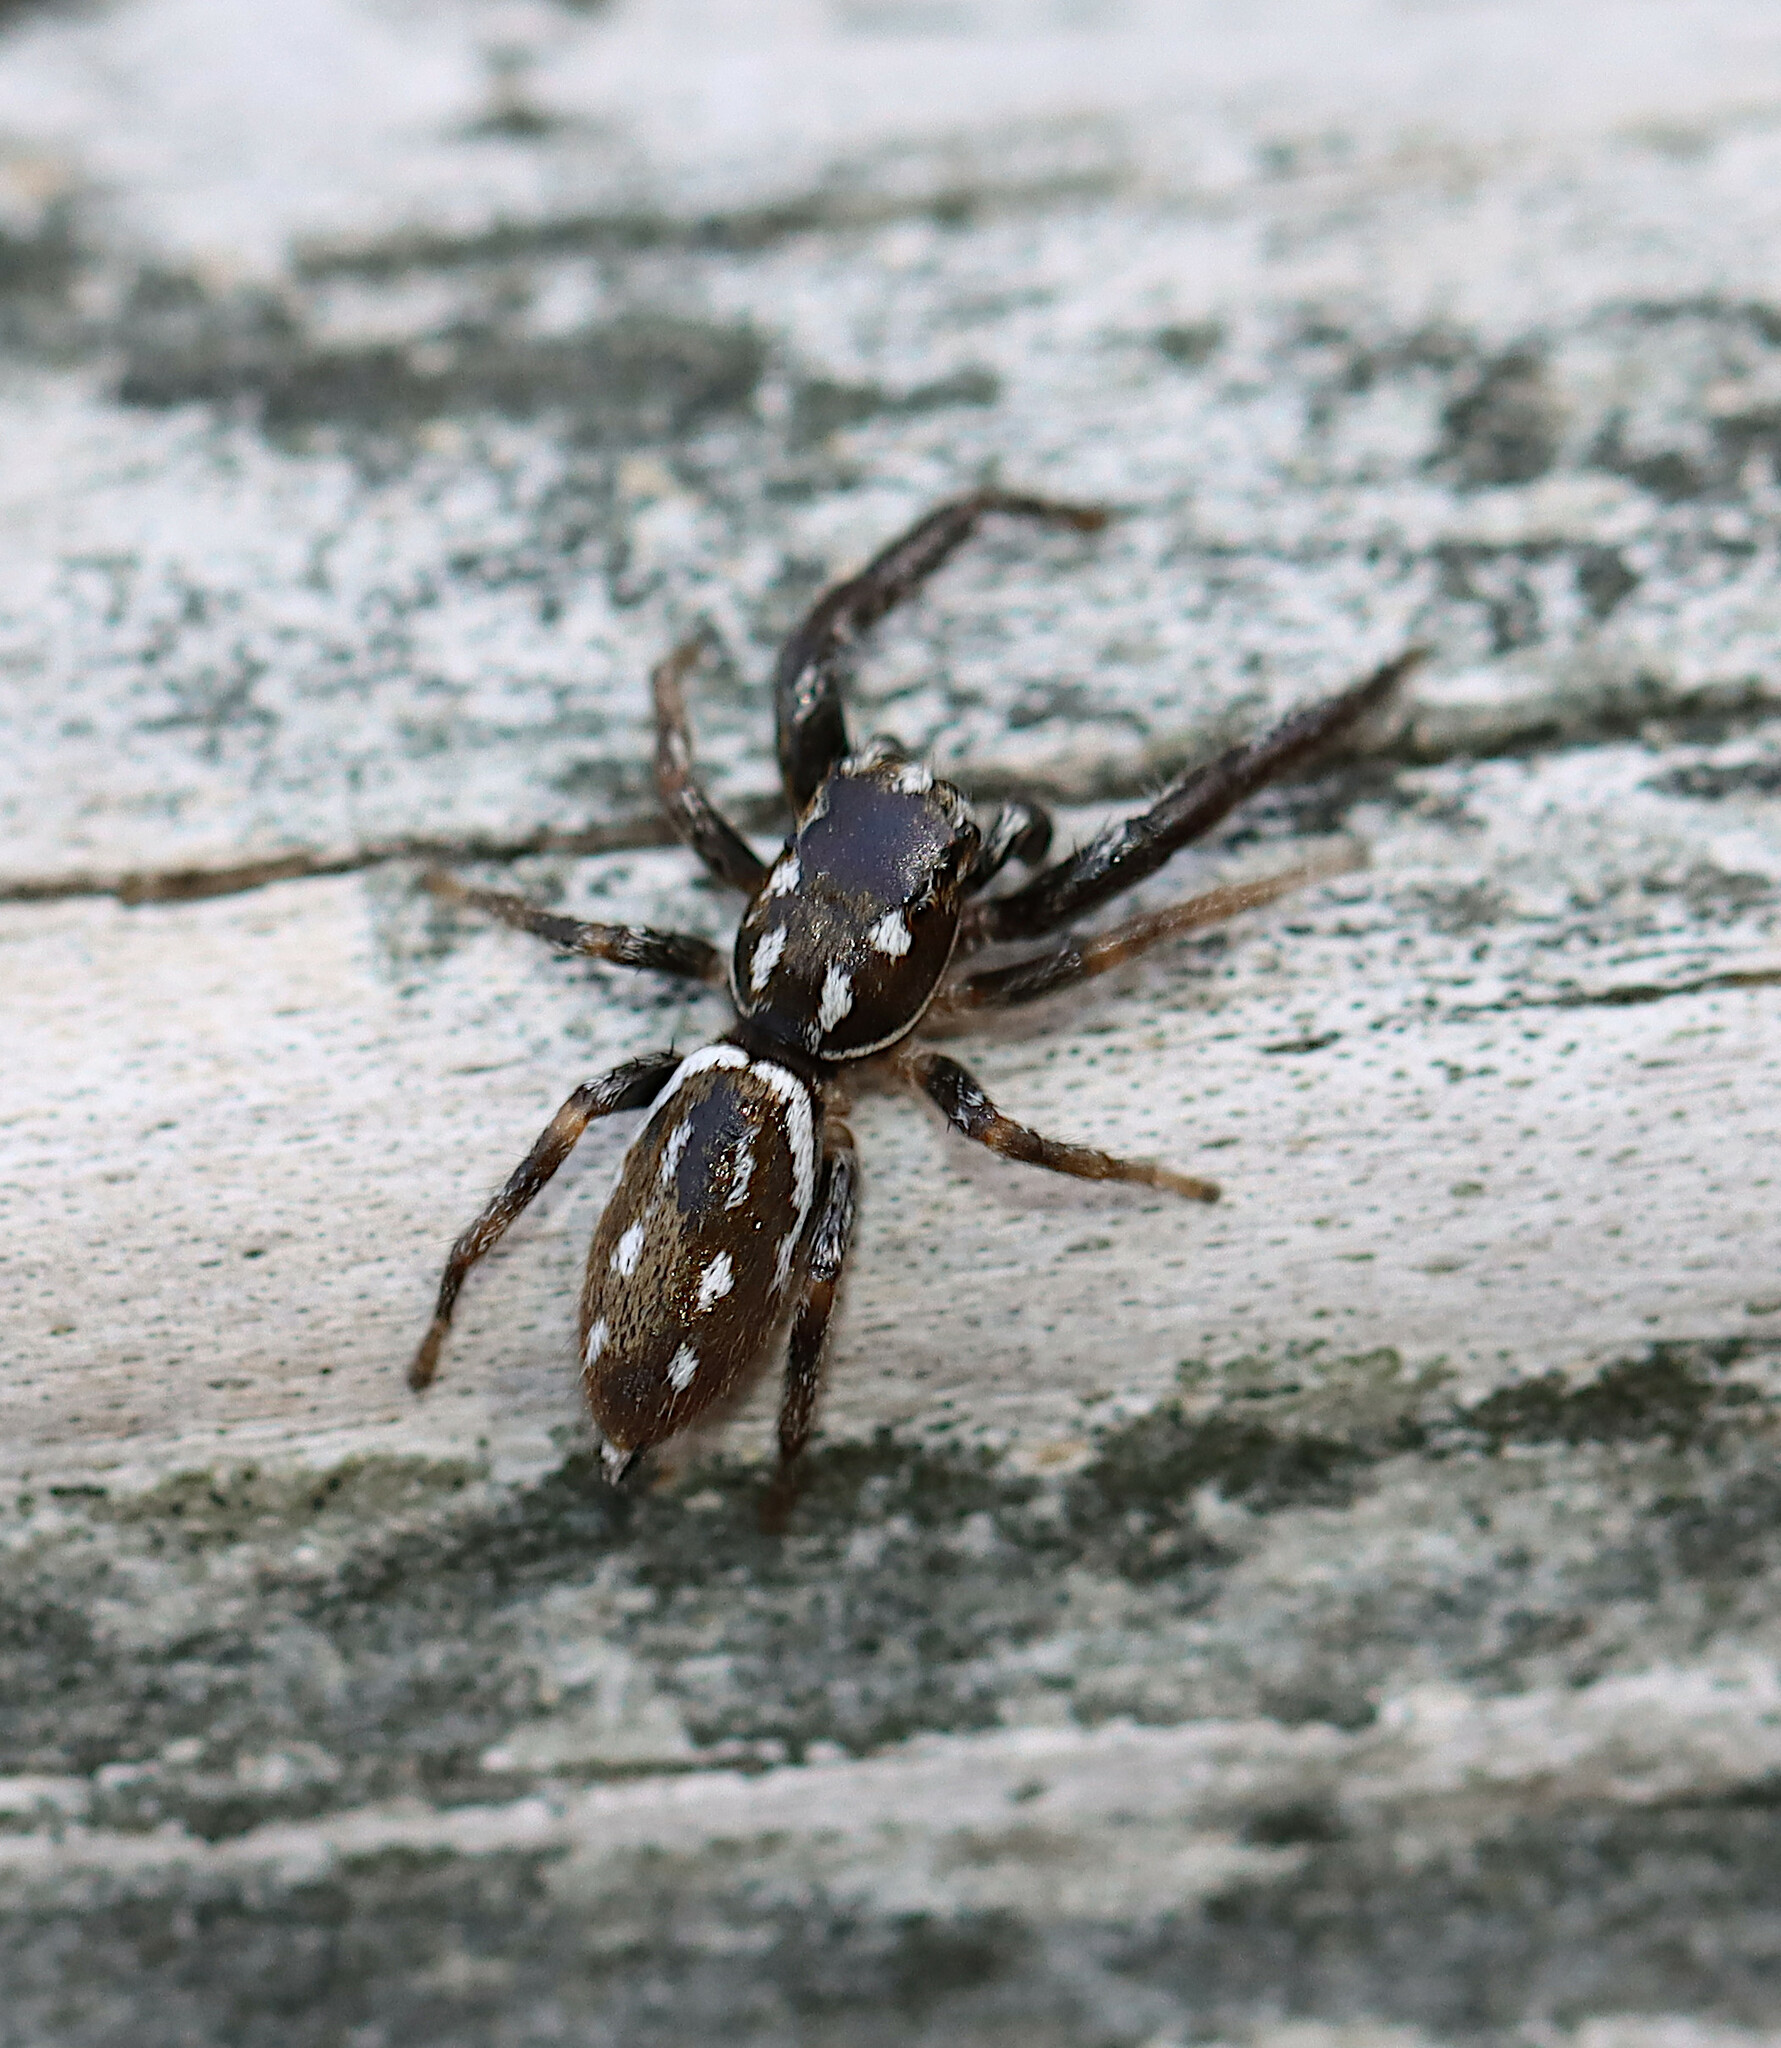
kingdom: Animalia
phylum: Arthropoda
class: Arachnida
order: Araneae
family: Salticidae
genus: Marpissa
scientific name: Marpissa formosa
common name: Short-bellied slender jumping spider
